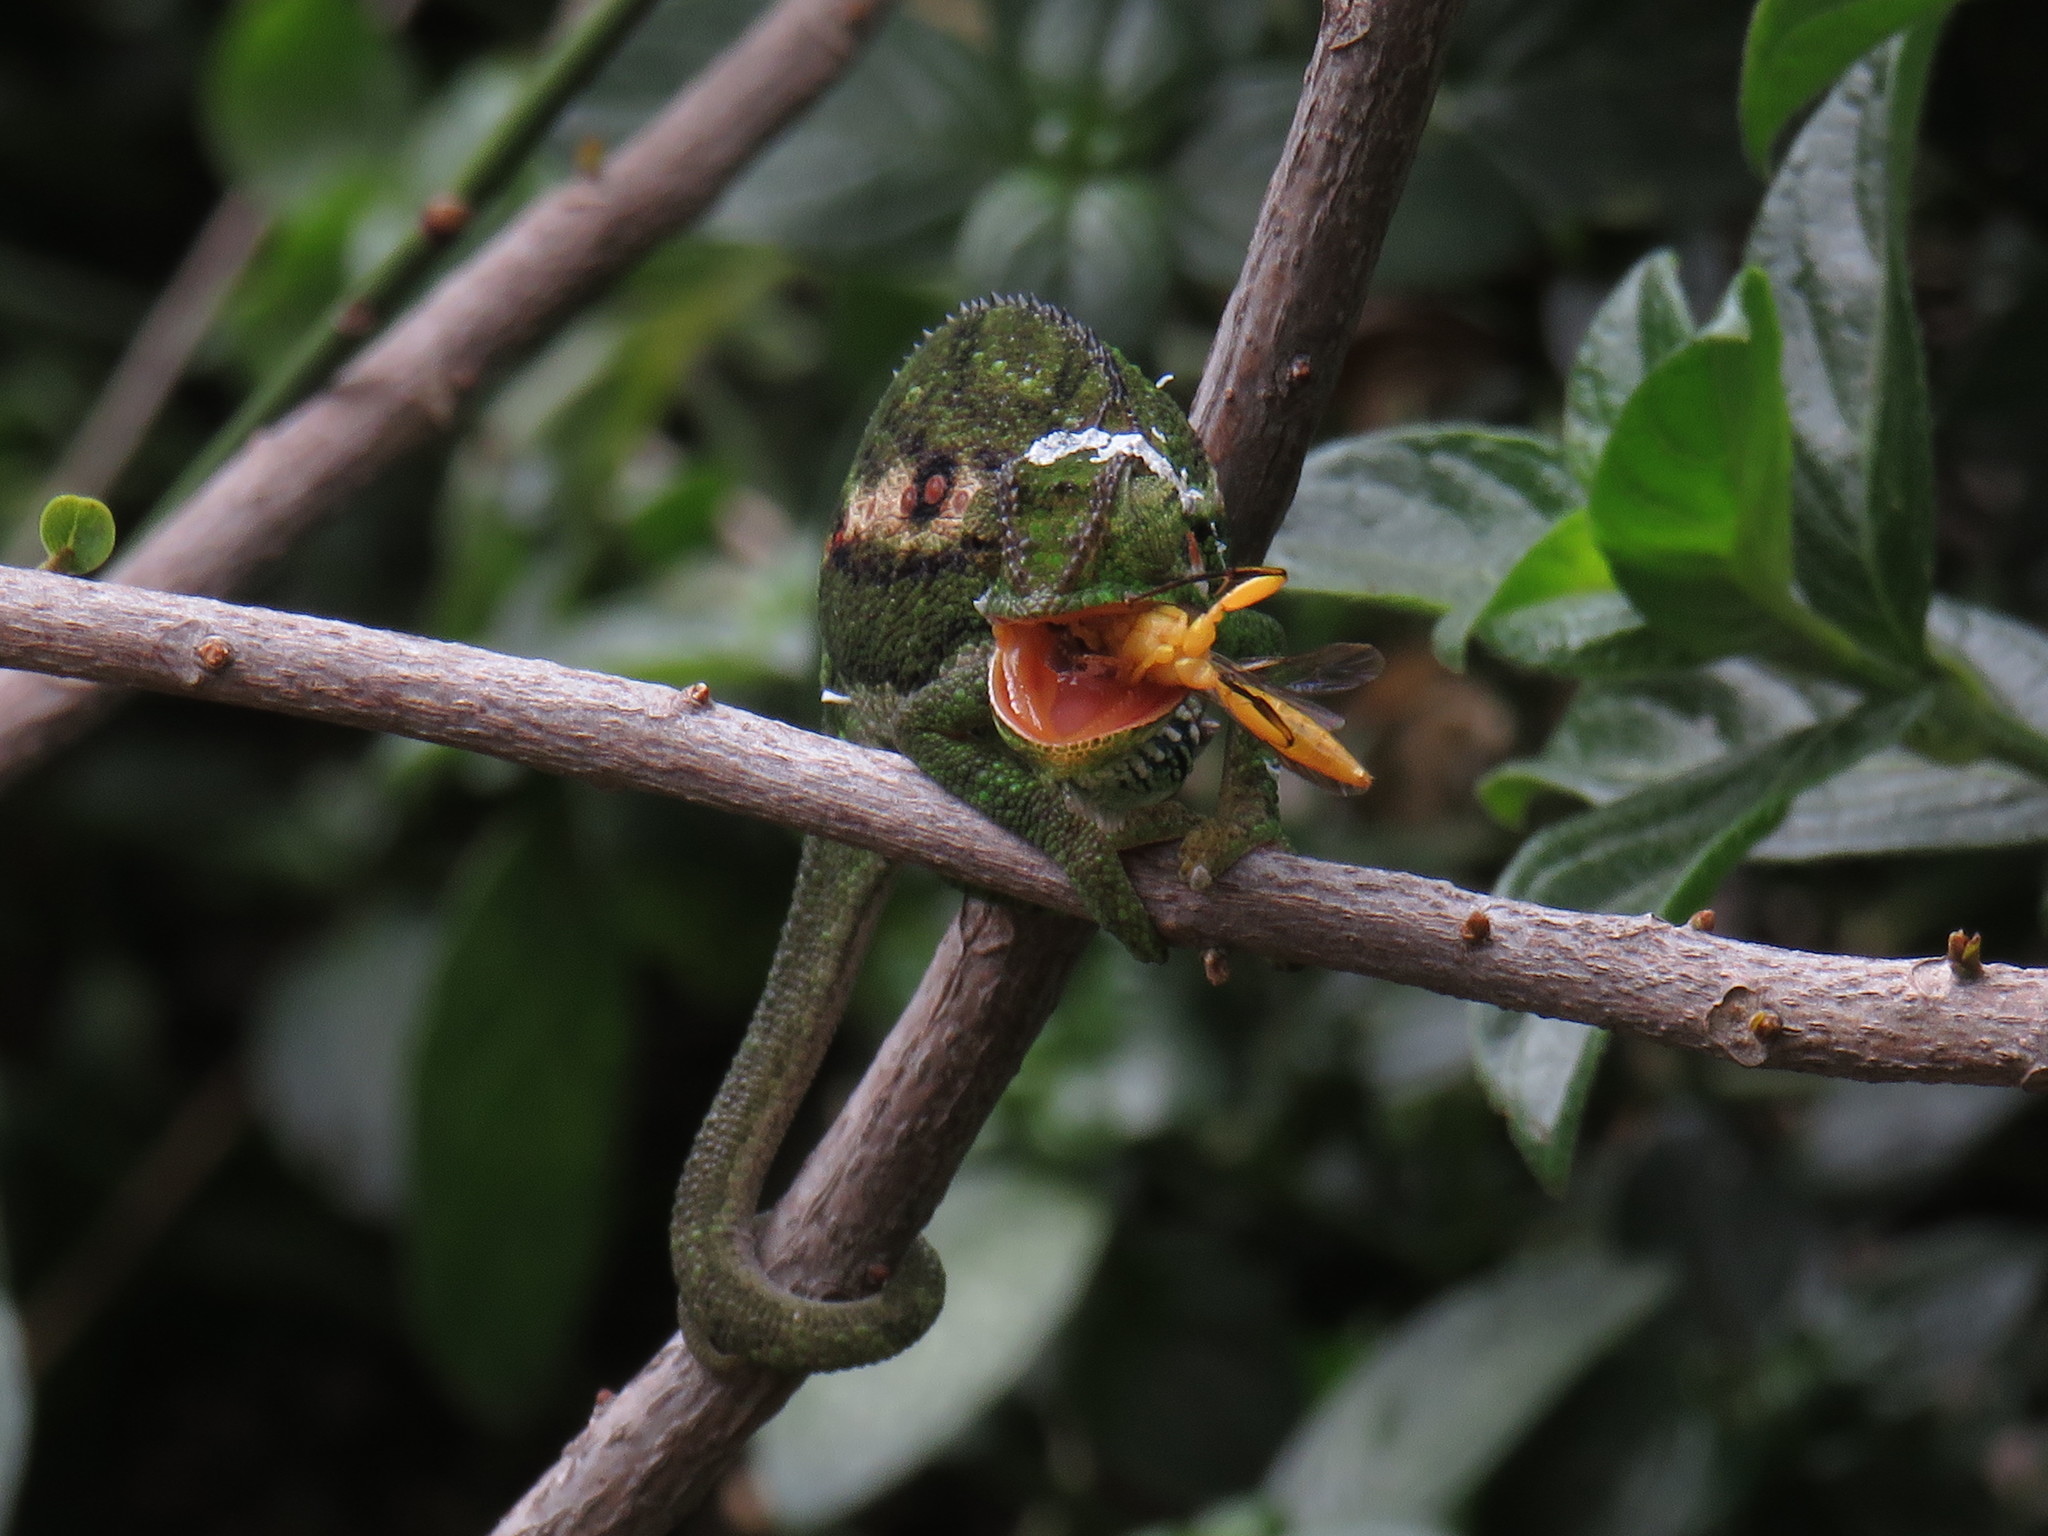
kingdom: Animalia
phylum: Chordata
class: Squamata
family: Chamaeleonidae
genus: Bradypodion
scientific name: Bradypodion pumilum
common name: Cape dwarf chameleon
